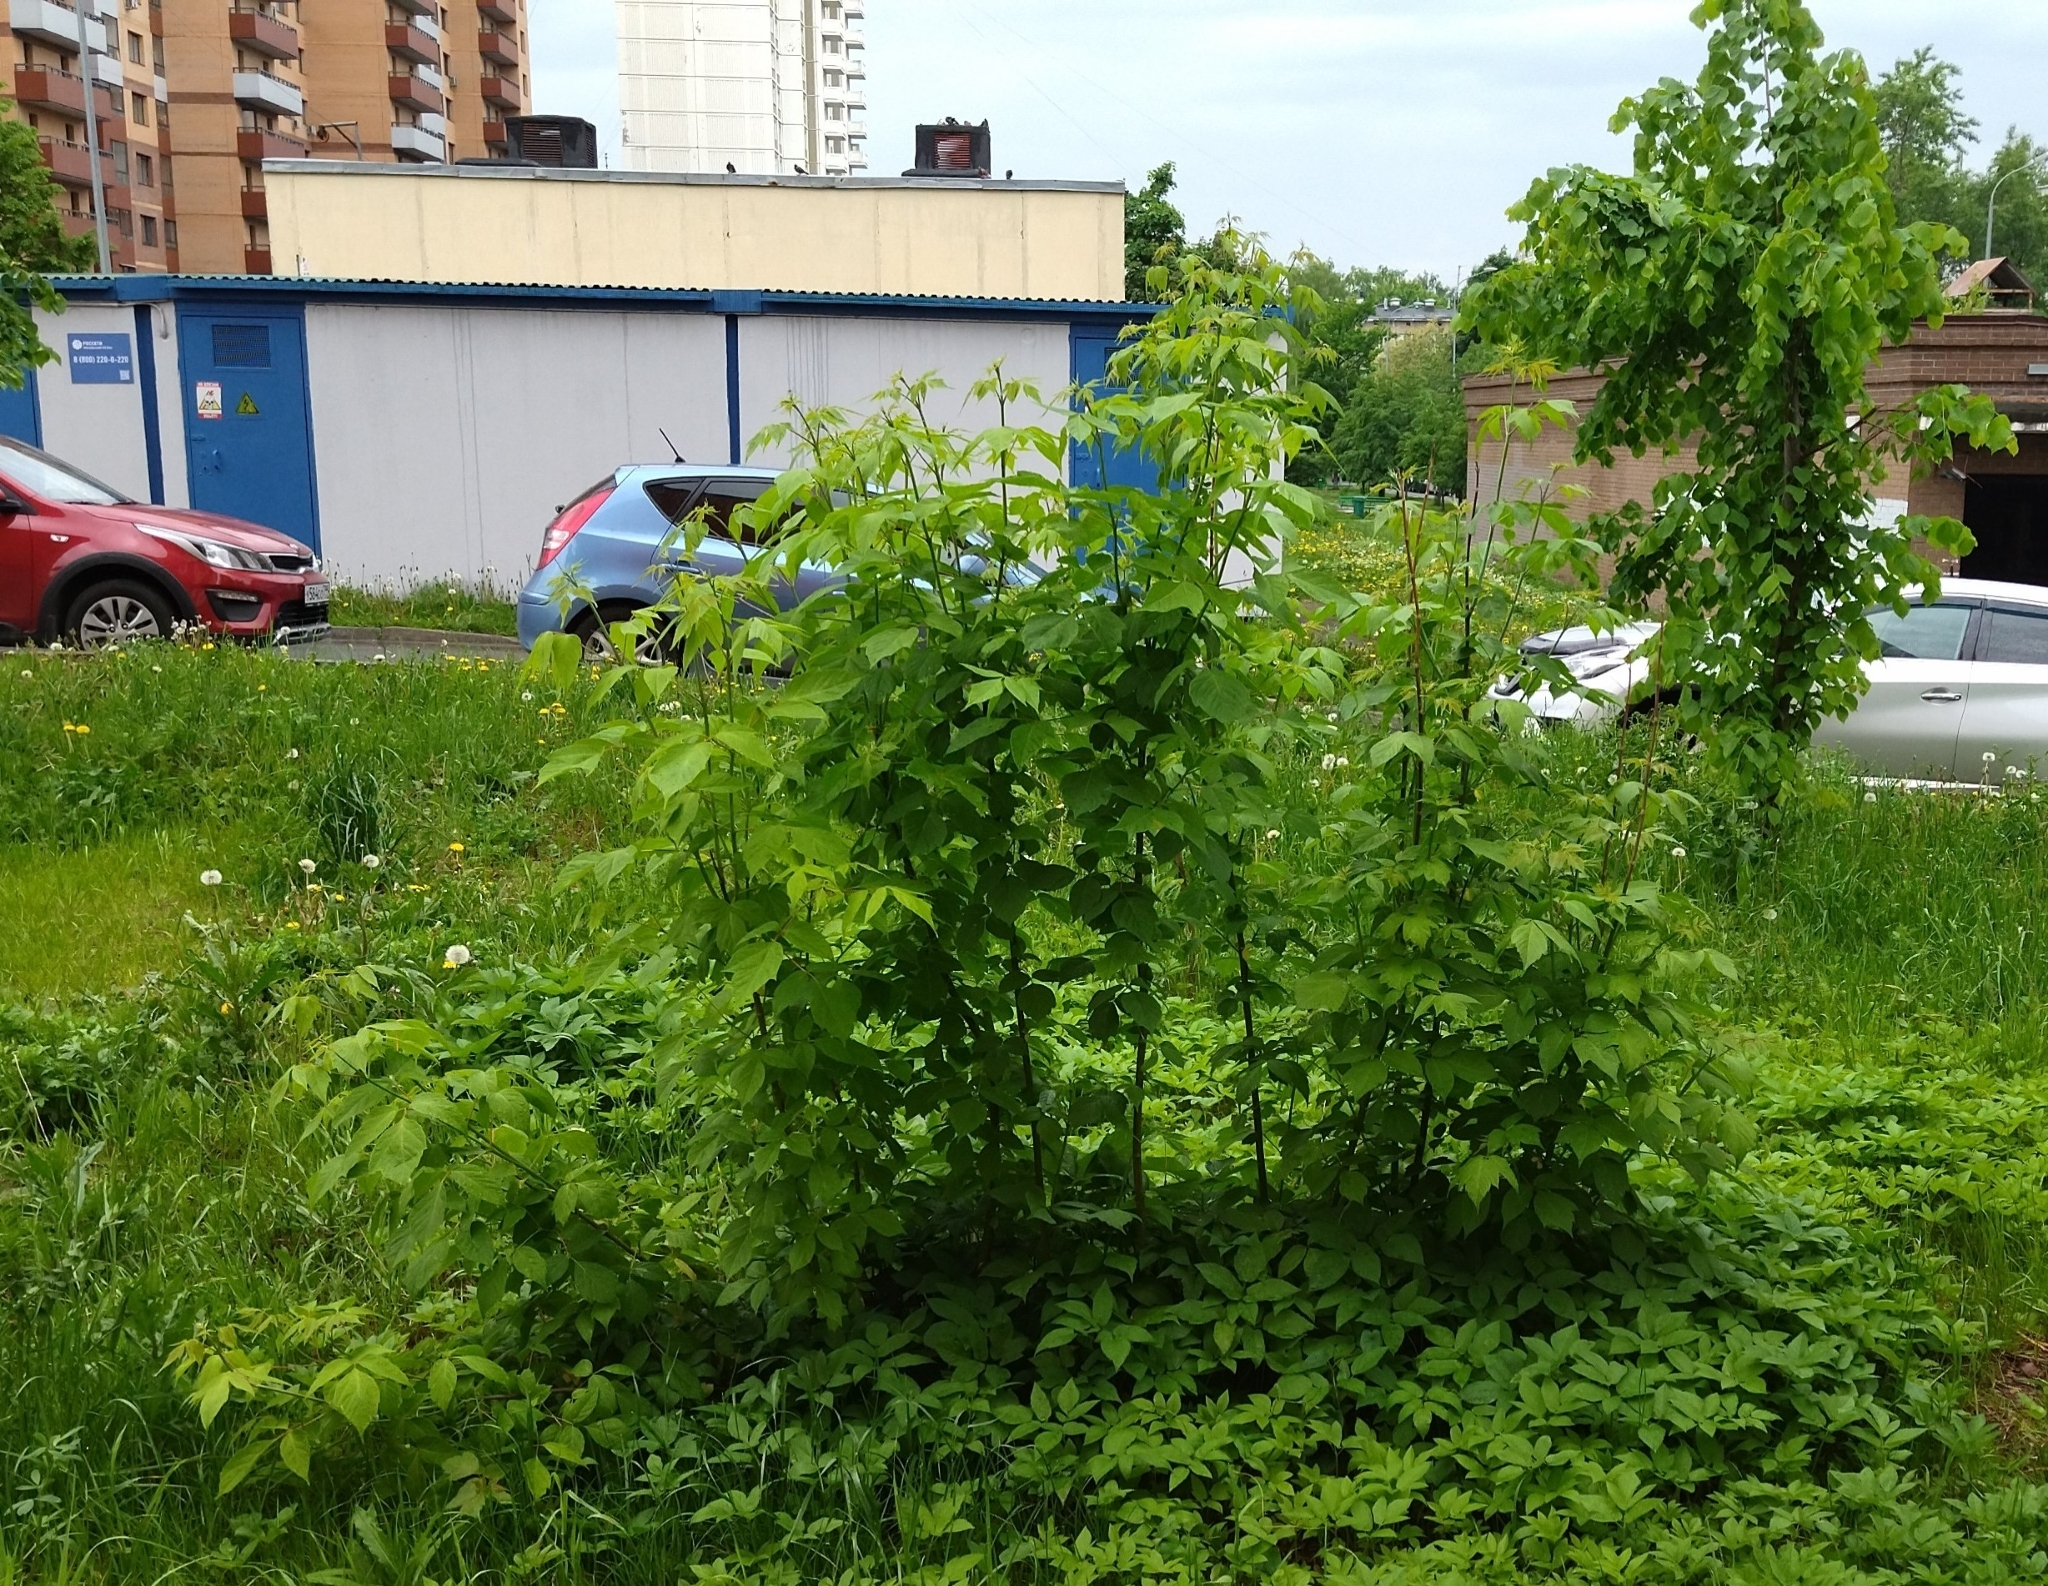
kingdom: Plantae
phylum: Tracheophyta
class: Magnoliopsida
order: Sapindales
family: Sapindaceae
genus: Acer
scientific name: Acer negundo
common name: Ashleaf maple
